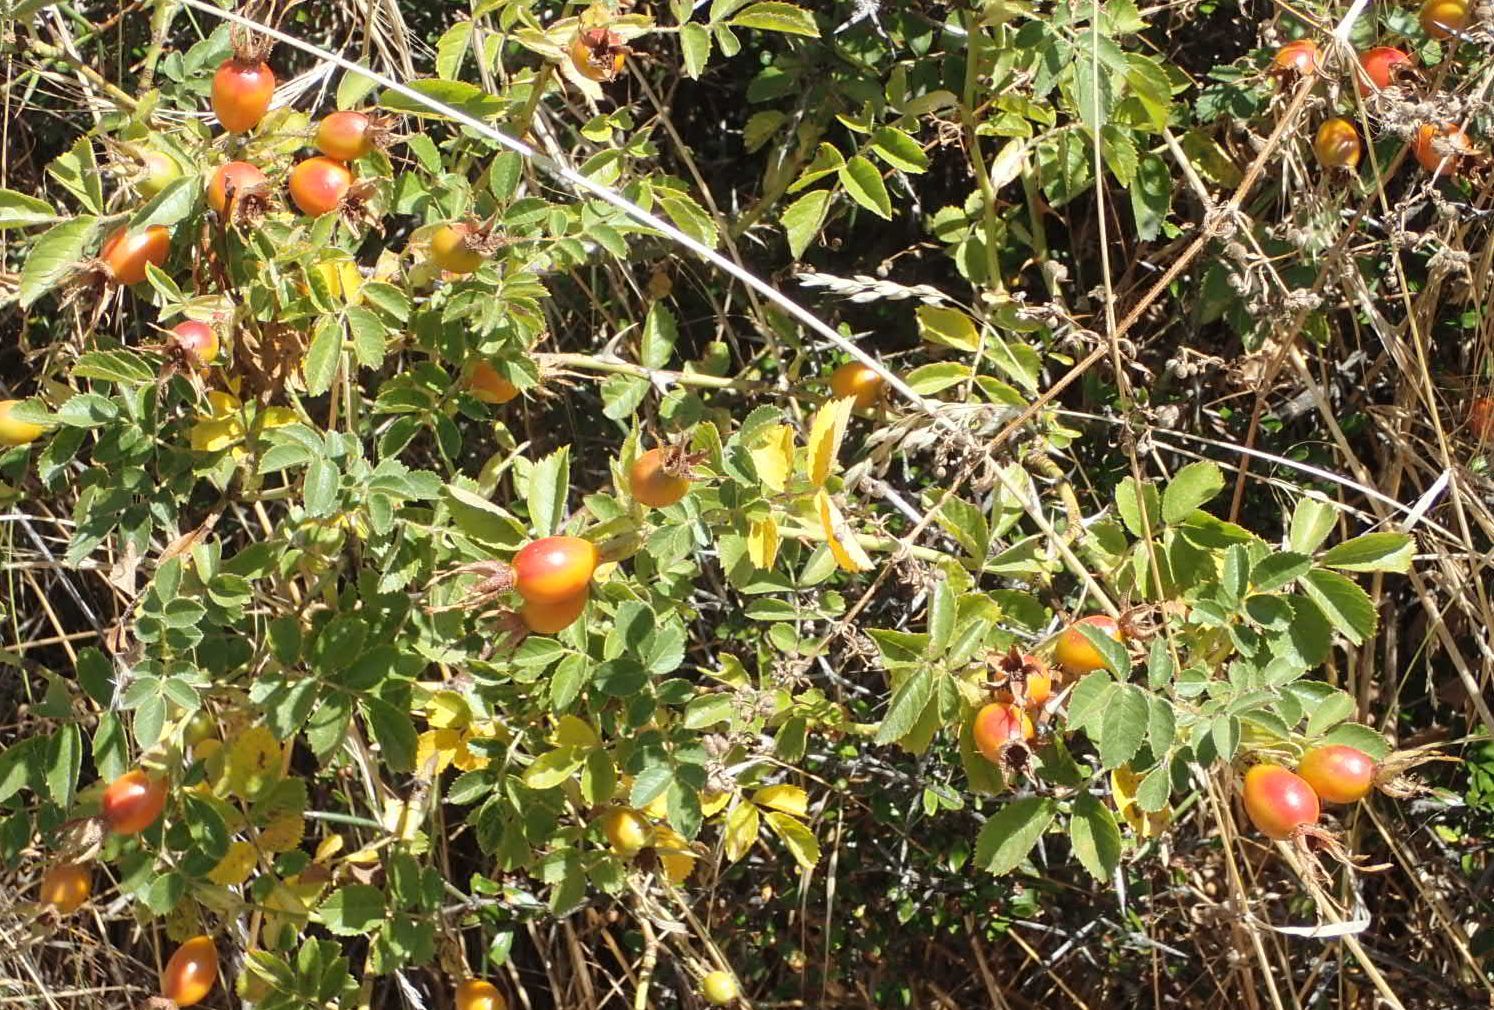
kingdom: Plantae
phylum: Tracheophyta
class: Magnoliopsida
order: Rosales
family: Rosaceae
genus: Rosa
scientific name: Rosa rubiginosa
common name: Sweet-briar
